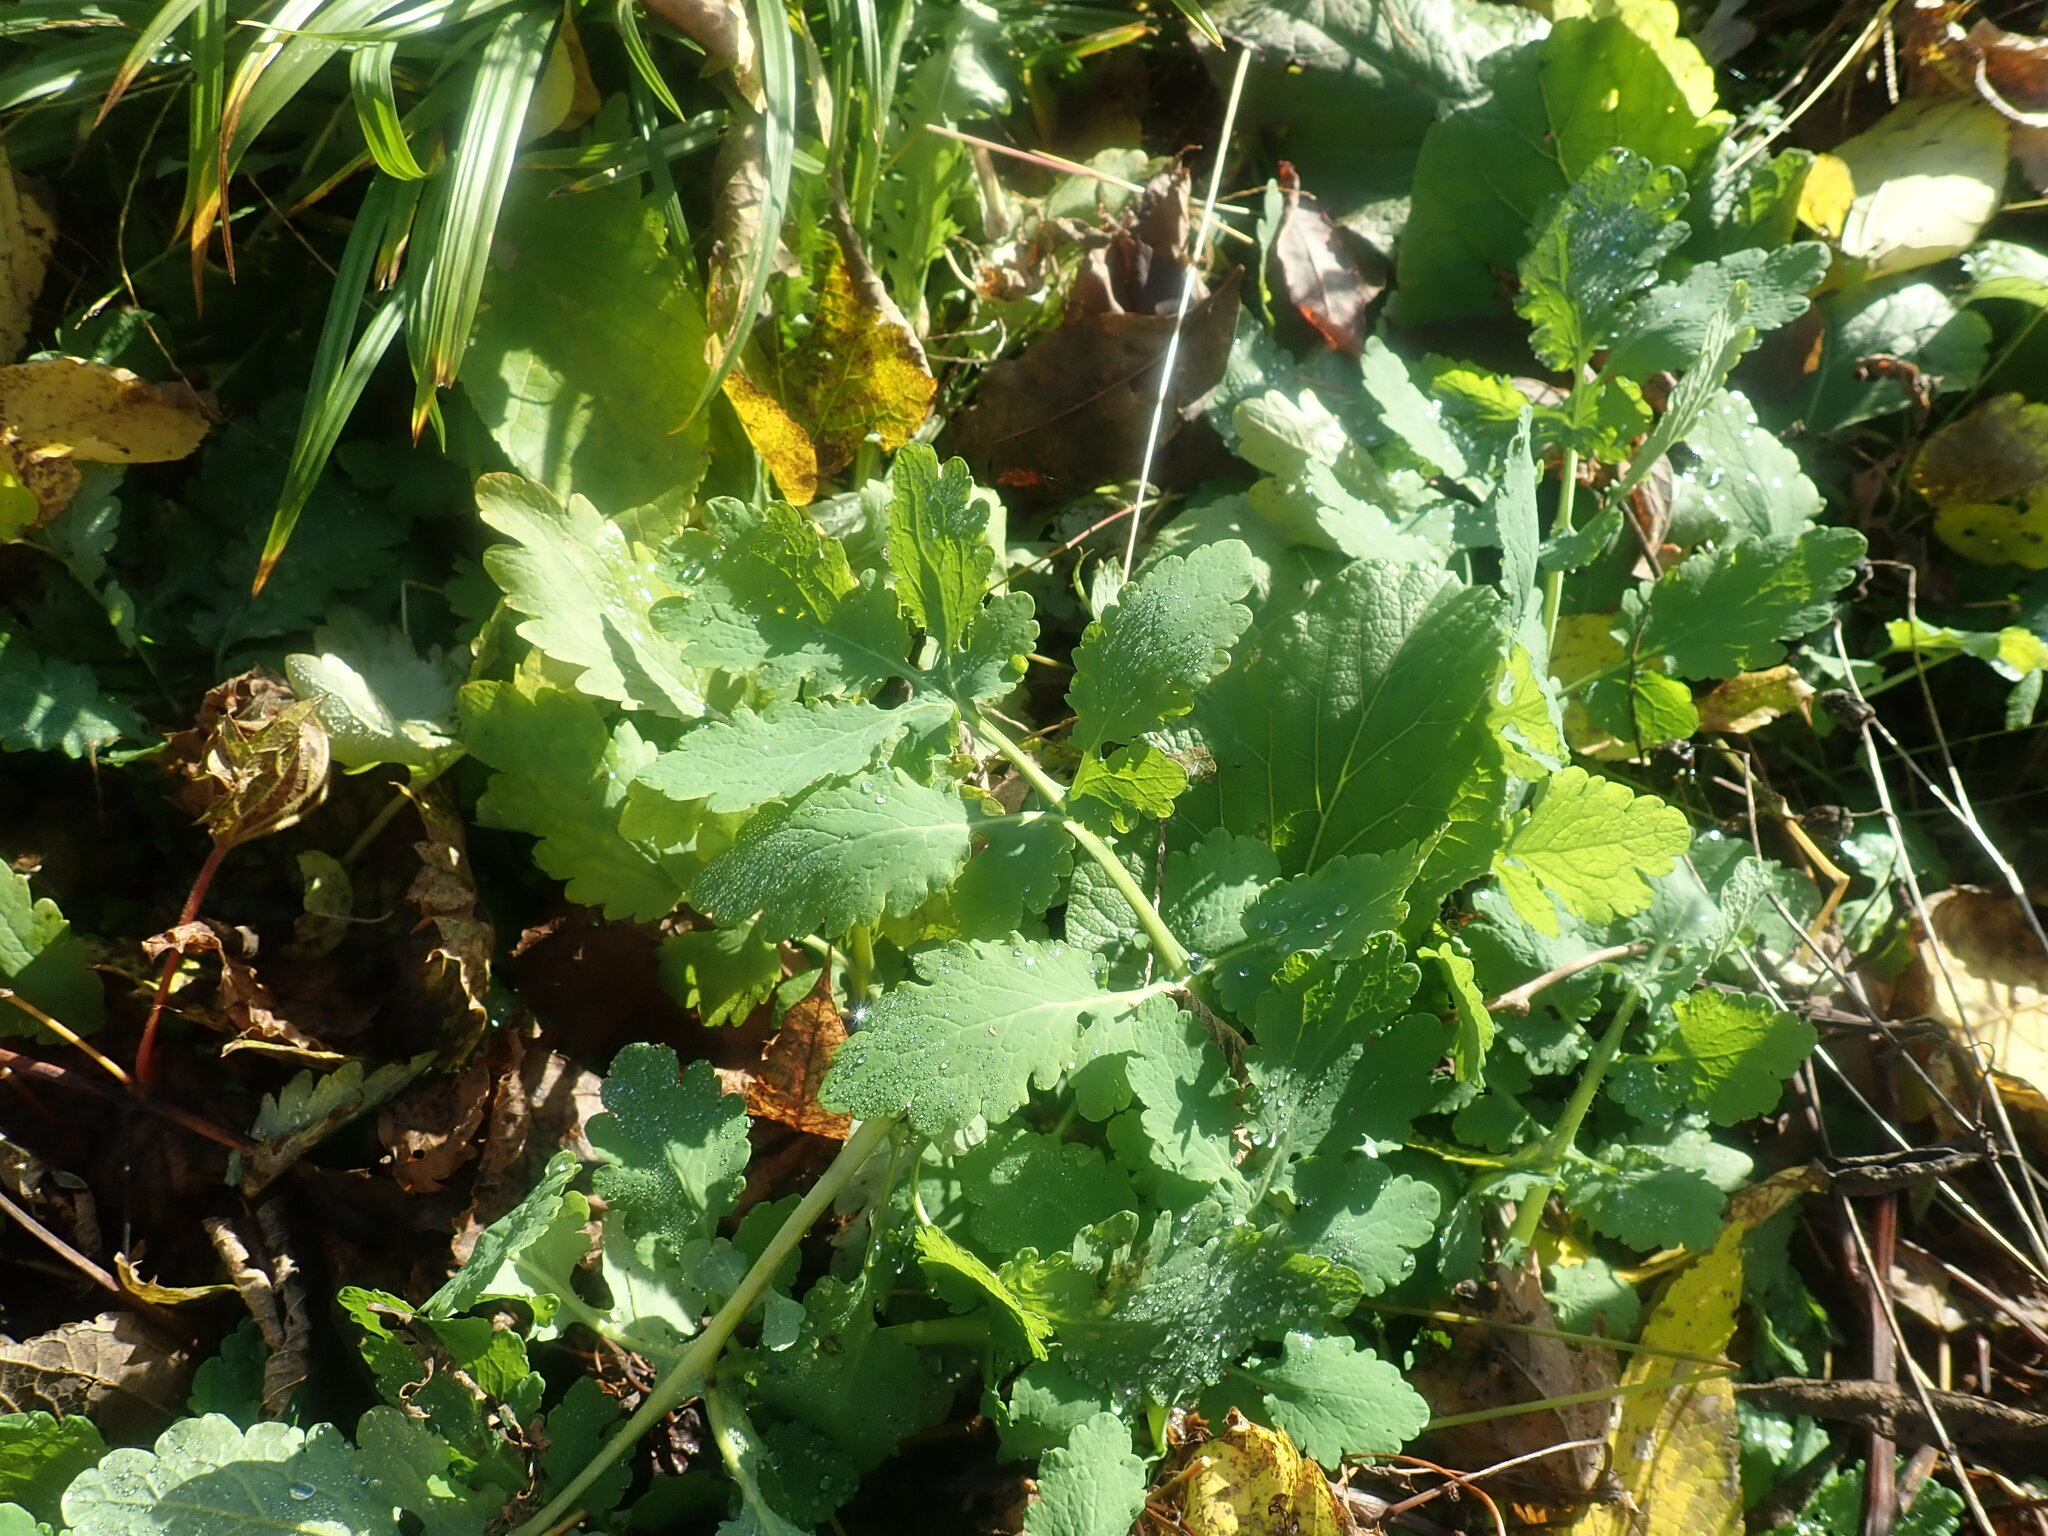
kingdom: Plantae
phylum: Tracheophyta
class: Magnoliopsida
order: Ranunculales
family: Papaveraceae
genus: Chelidonium
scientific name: Chelidonium majus
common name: Greater celandine
